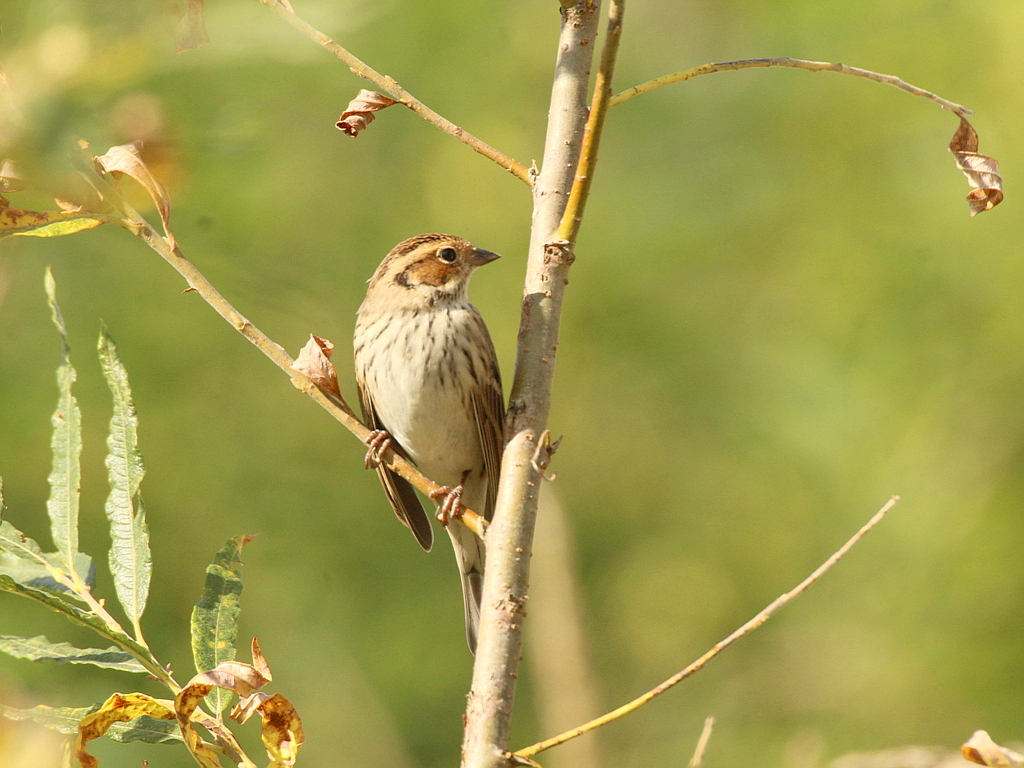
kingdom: Animalia
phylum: Chordata
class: Aves
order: Passeriformes
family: Emberizidae
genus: Emberiza
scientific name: Emberiza pusilla
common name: Little bunting
